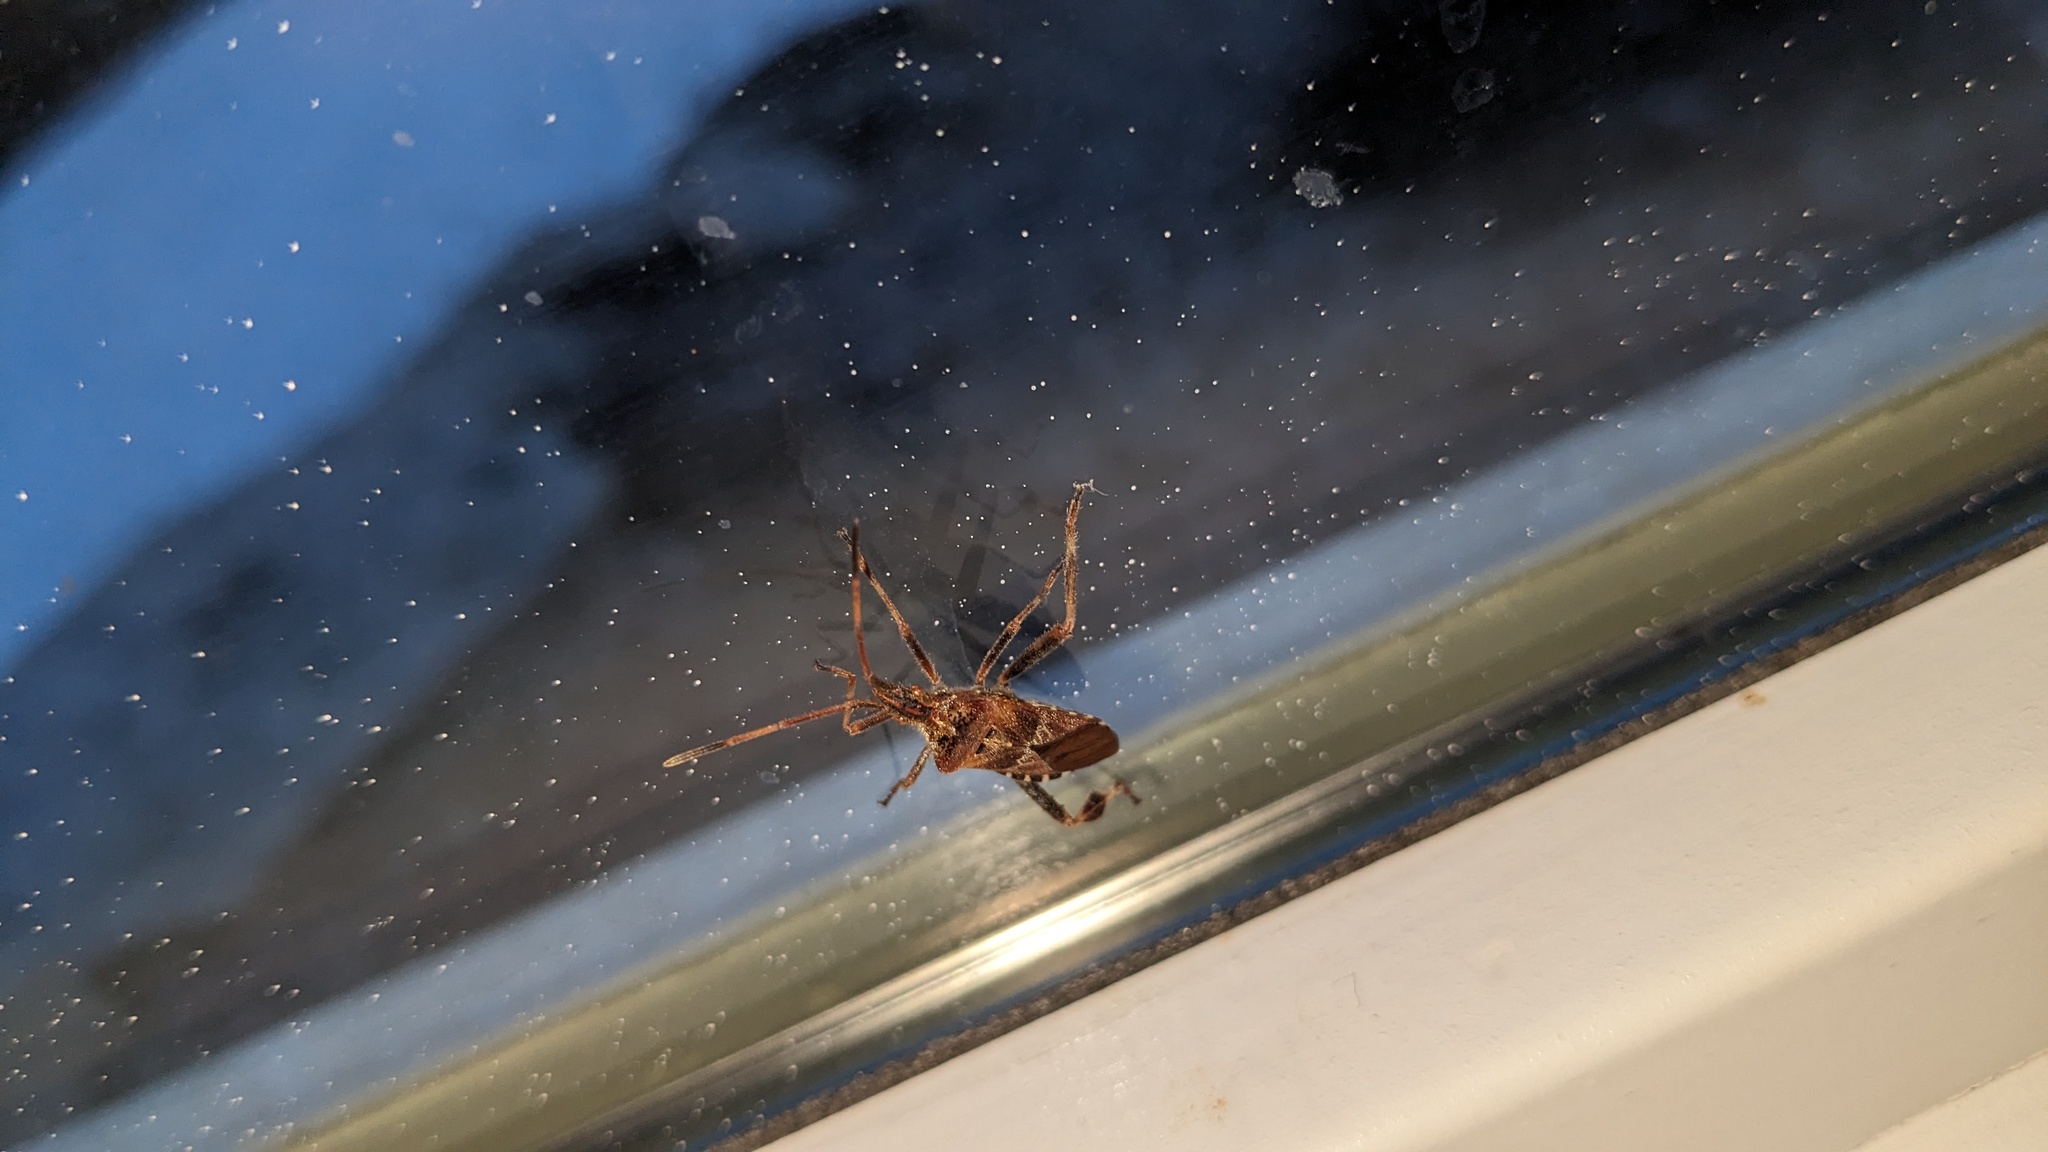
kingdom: Animalia
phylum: Arthropoda
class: Insecta
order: Hemiptera
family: Coreidae
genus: Leptoglossus
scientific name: Leptoglossus occidentalis
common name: Western conifer-seed bug
